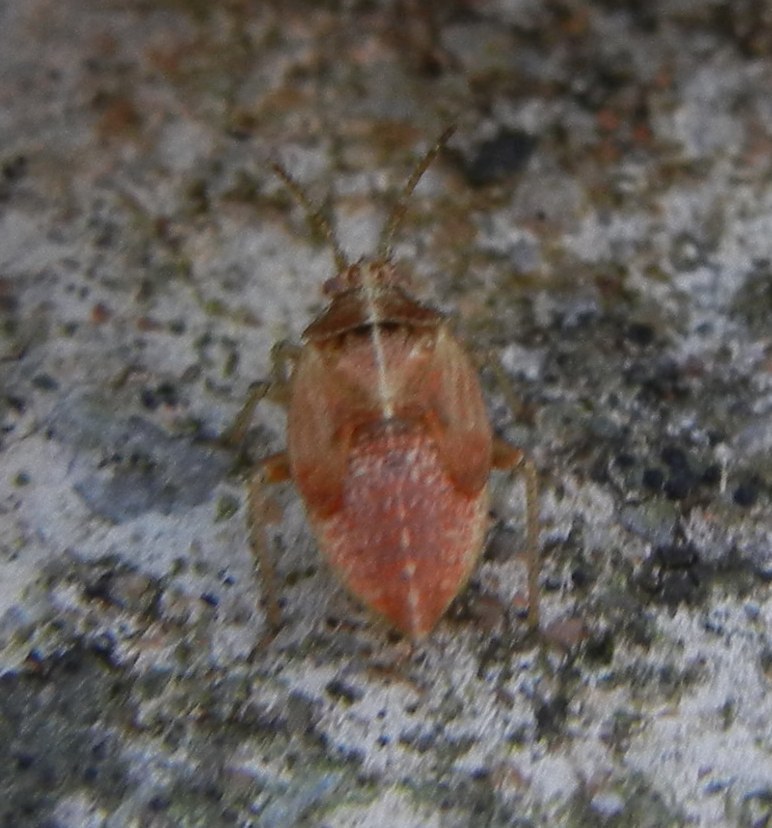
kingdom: Animalia
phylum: Arthropoda
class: Insecta
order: Hemiptera
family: Miridae
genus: Harpocera
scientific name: Harpocera thoracica
